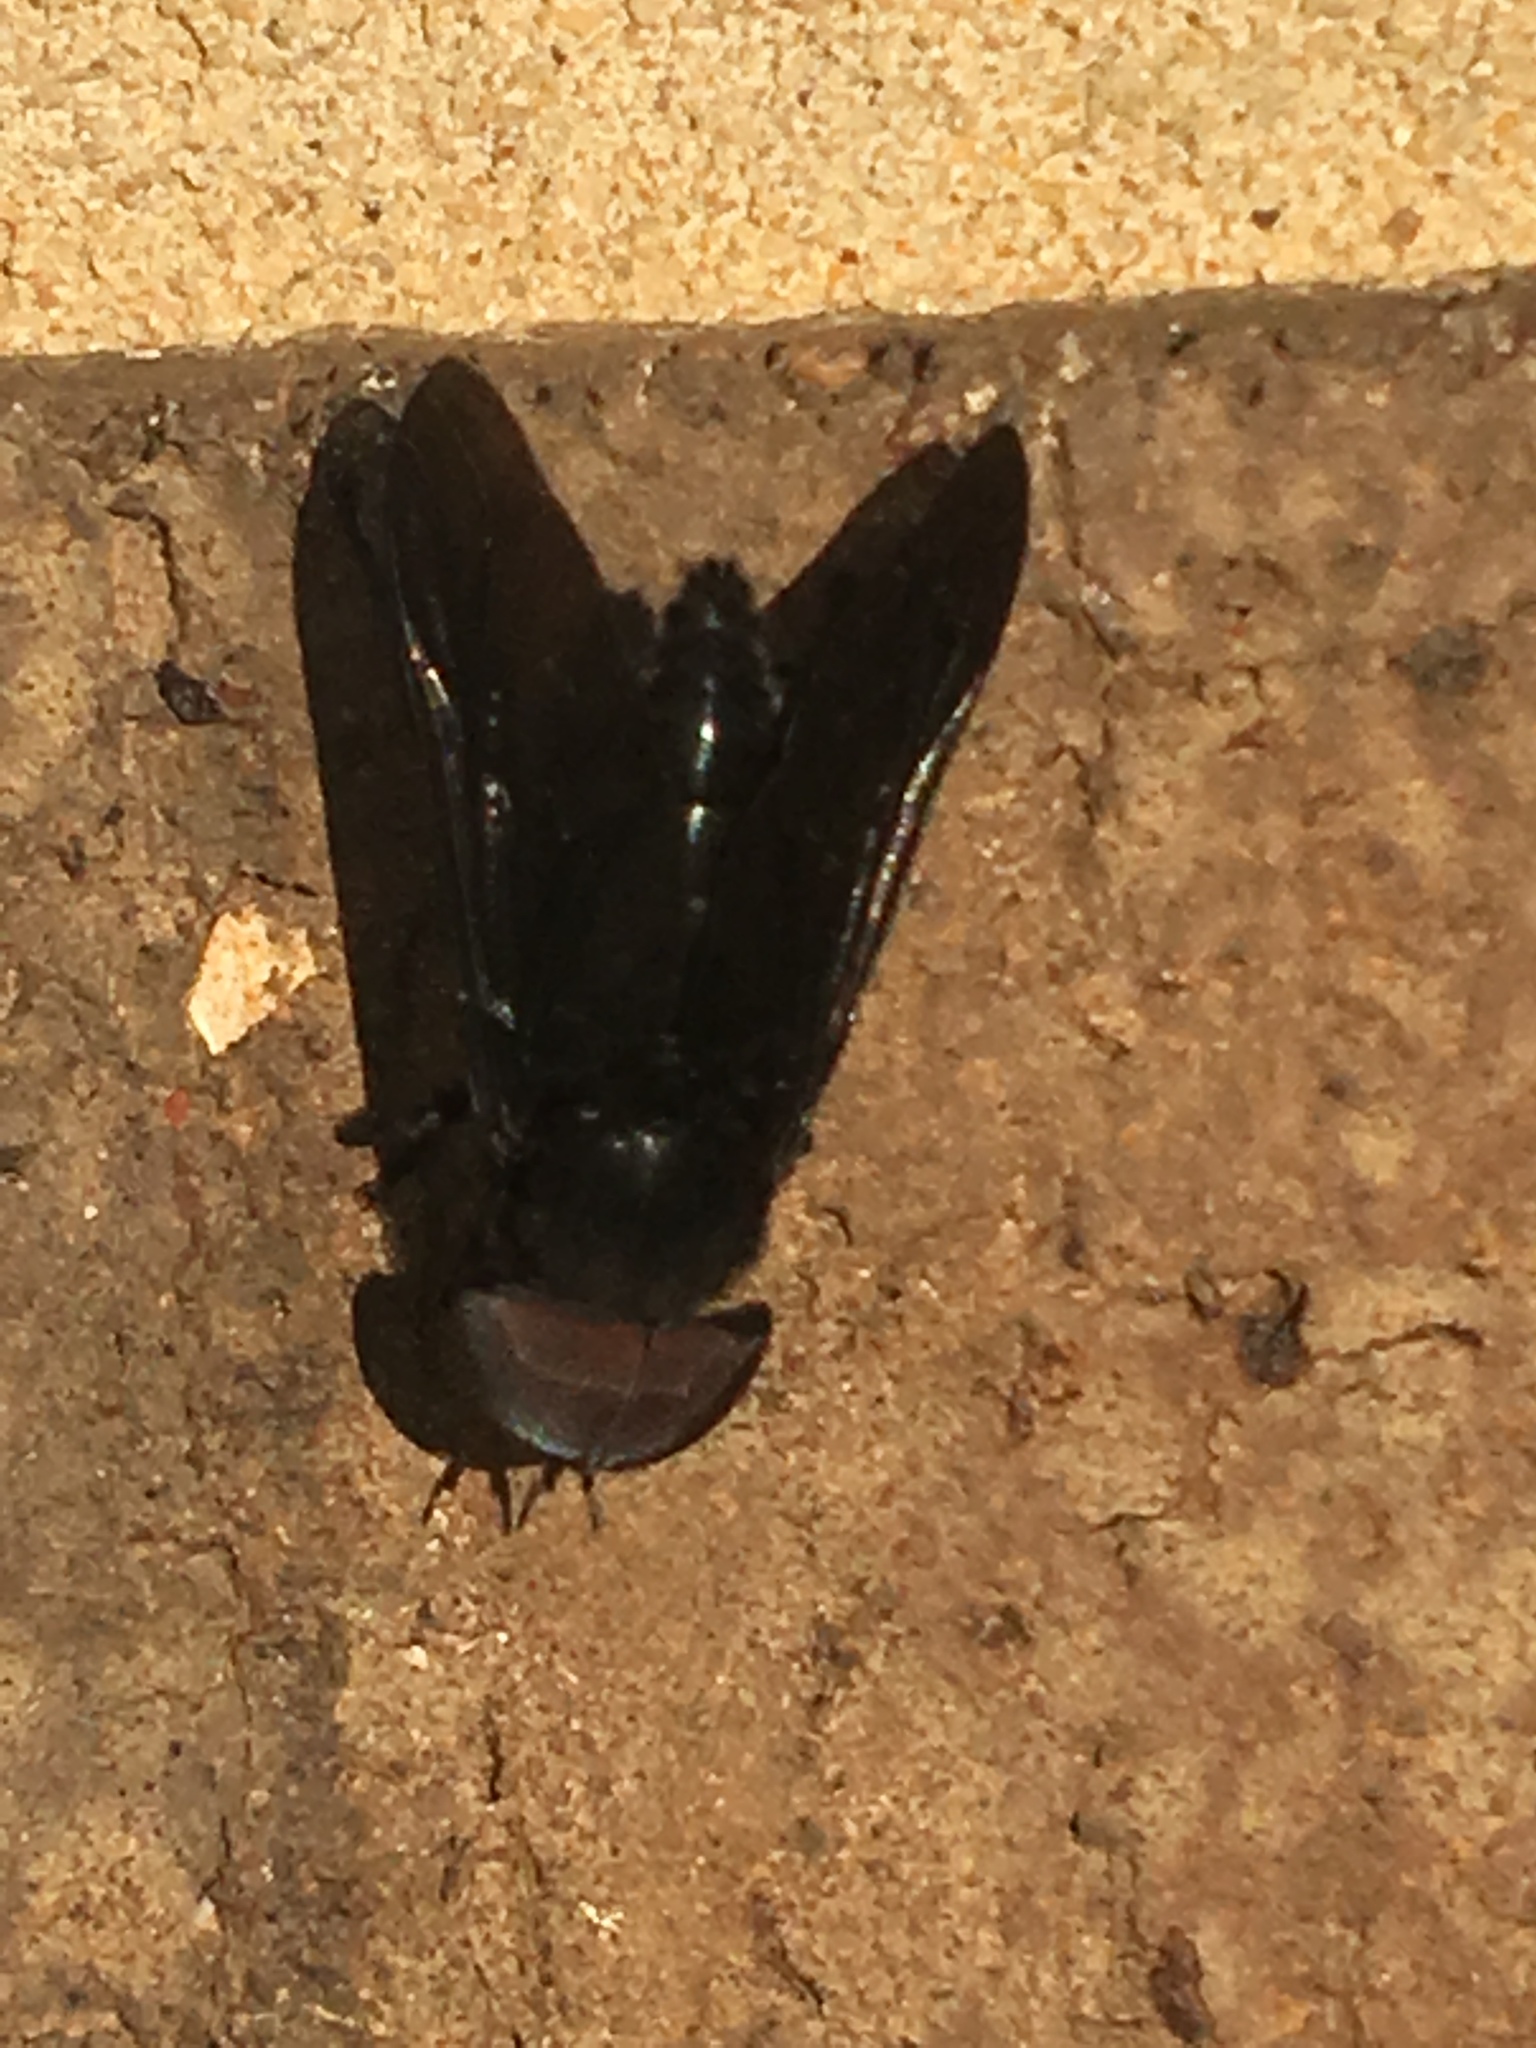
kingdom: Animalia
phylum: Arthropoda
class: Insecta
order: Diptera
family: Tabanidae
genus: Tabanus
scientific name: Tabanus atratus
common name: Black horse fly
